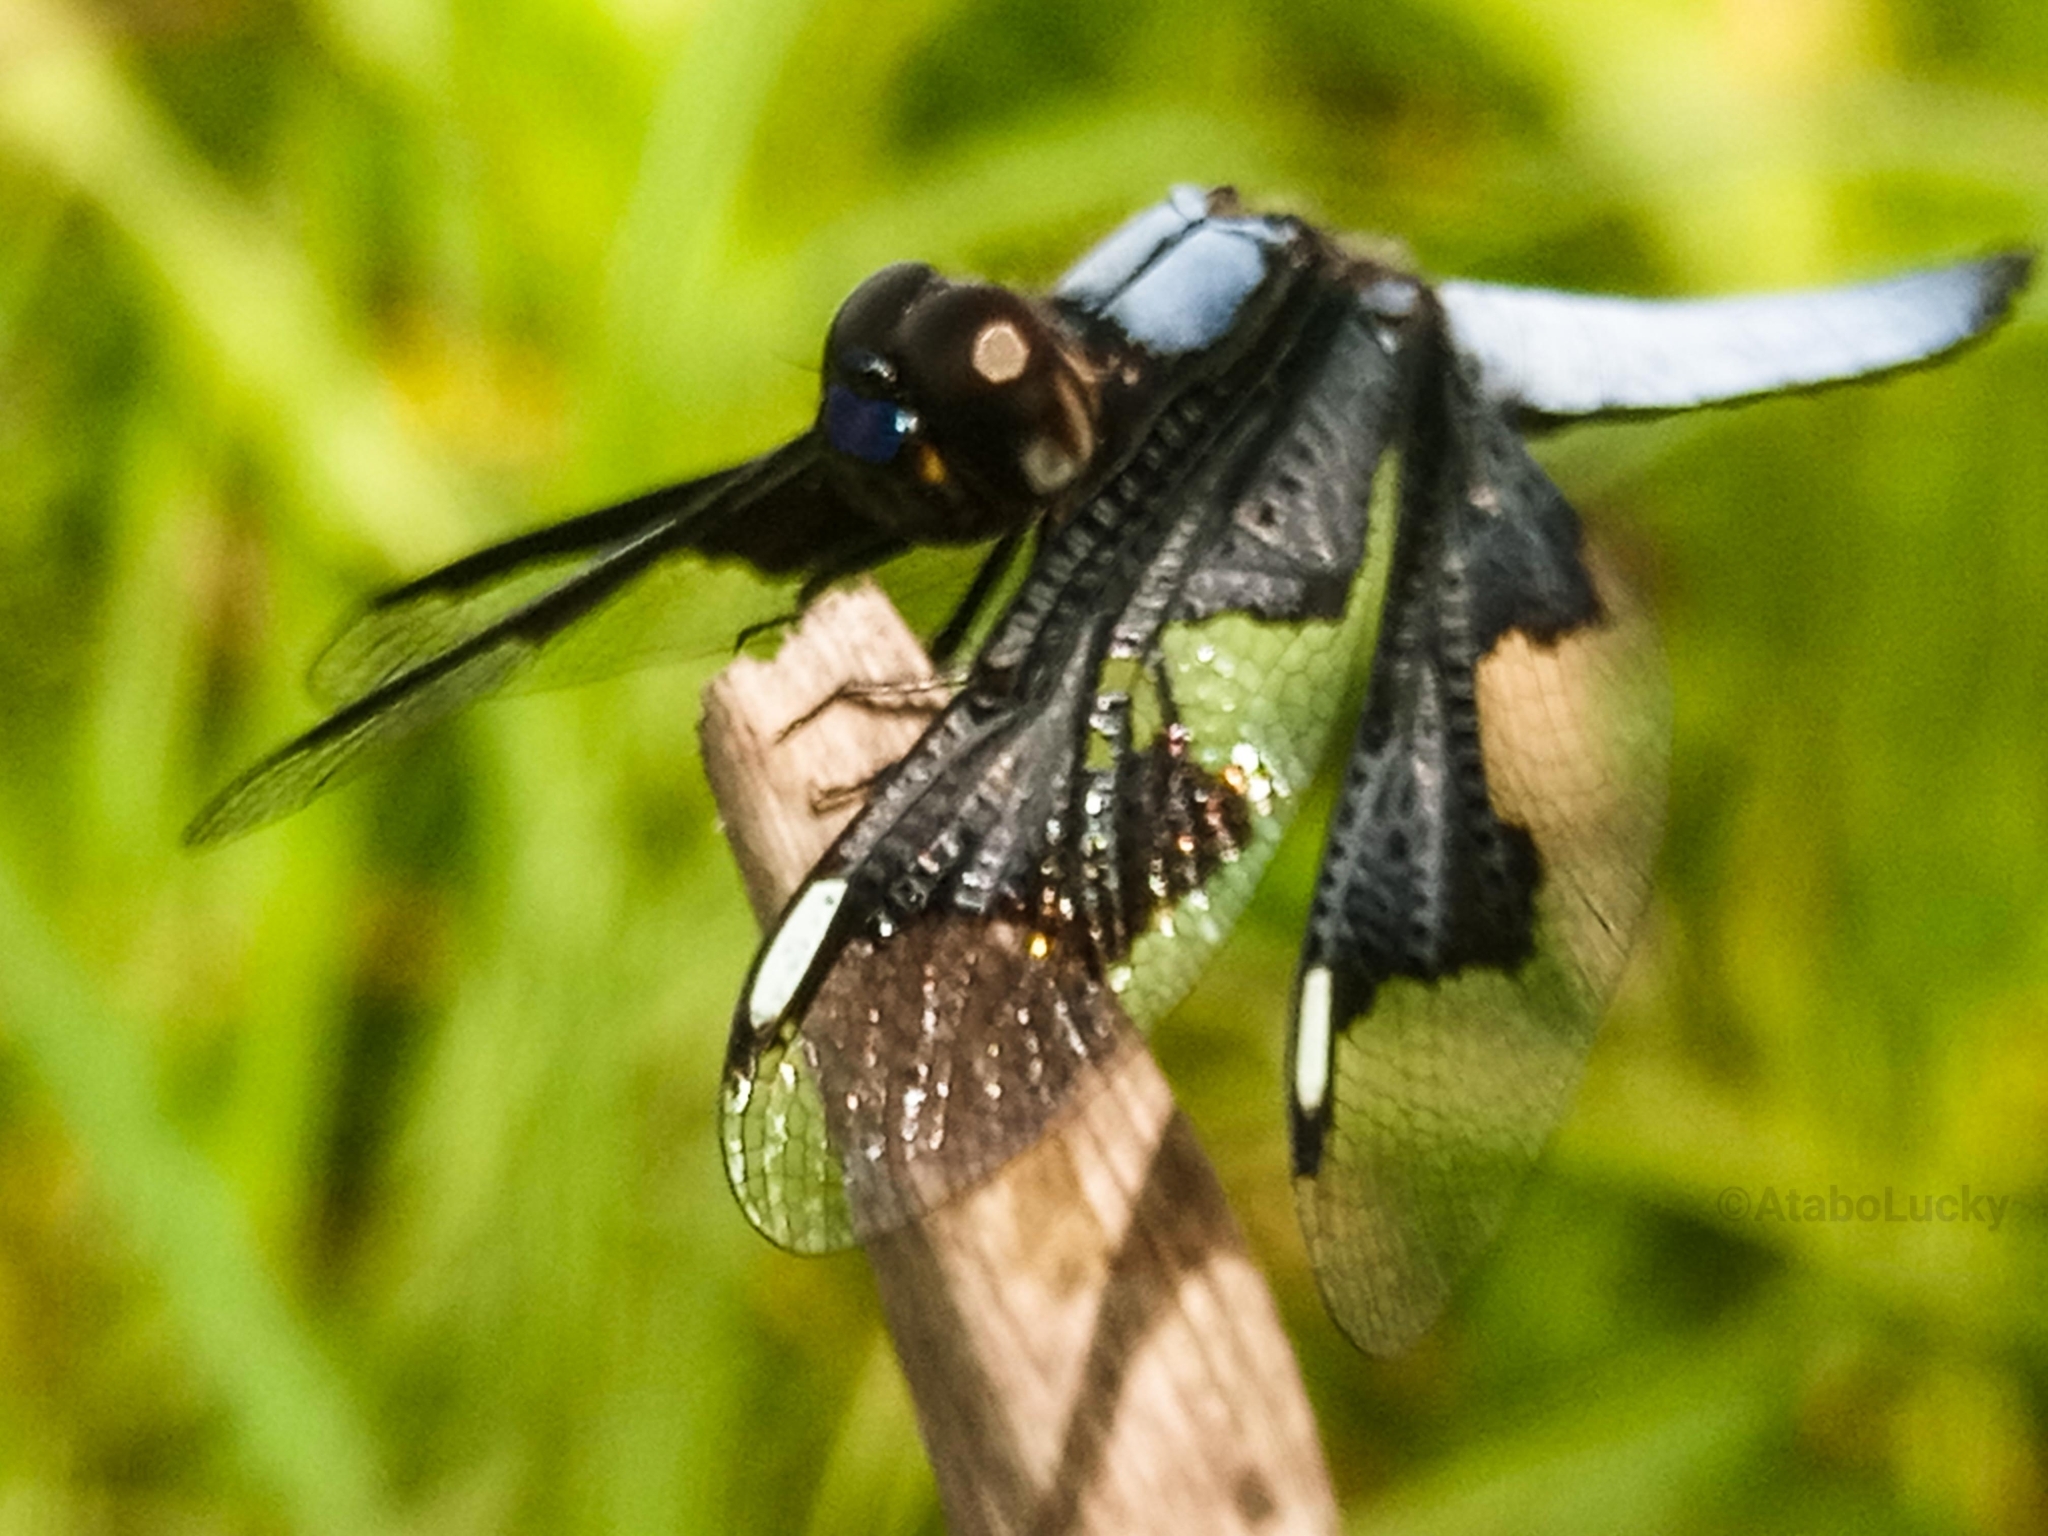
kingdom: Animalia
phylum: Arthropoda
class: Insecta
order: Odonata
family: Libellulidae
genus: Palpopleura
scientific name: Palpopleura portia
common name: Portia widow
